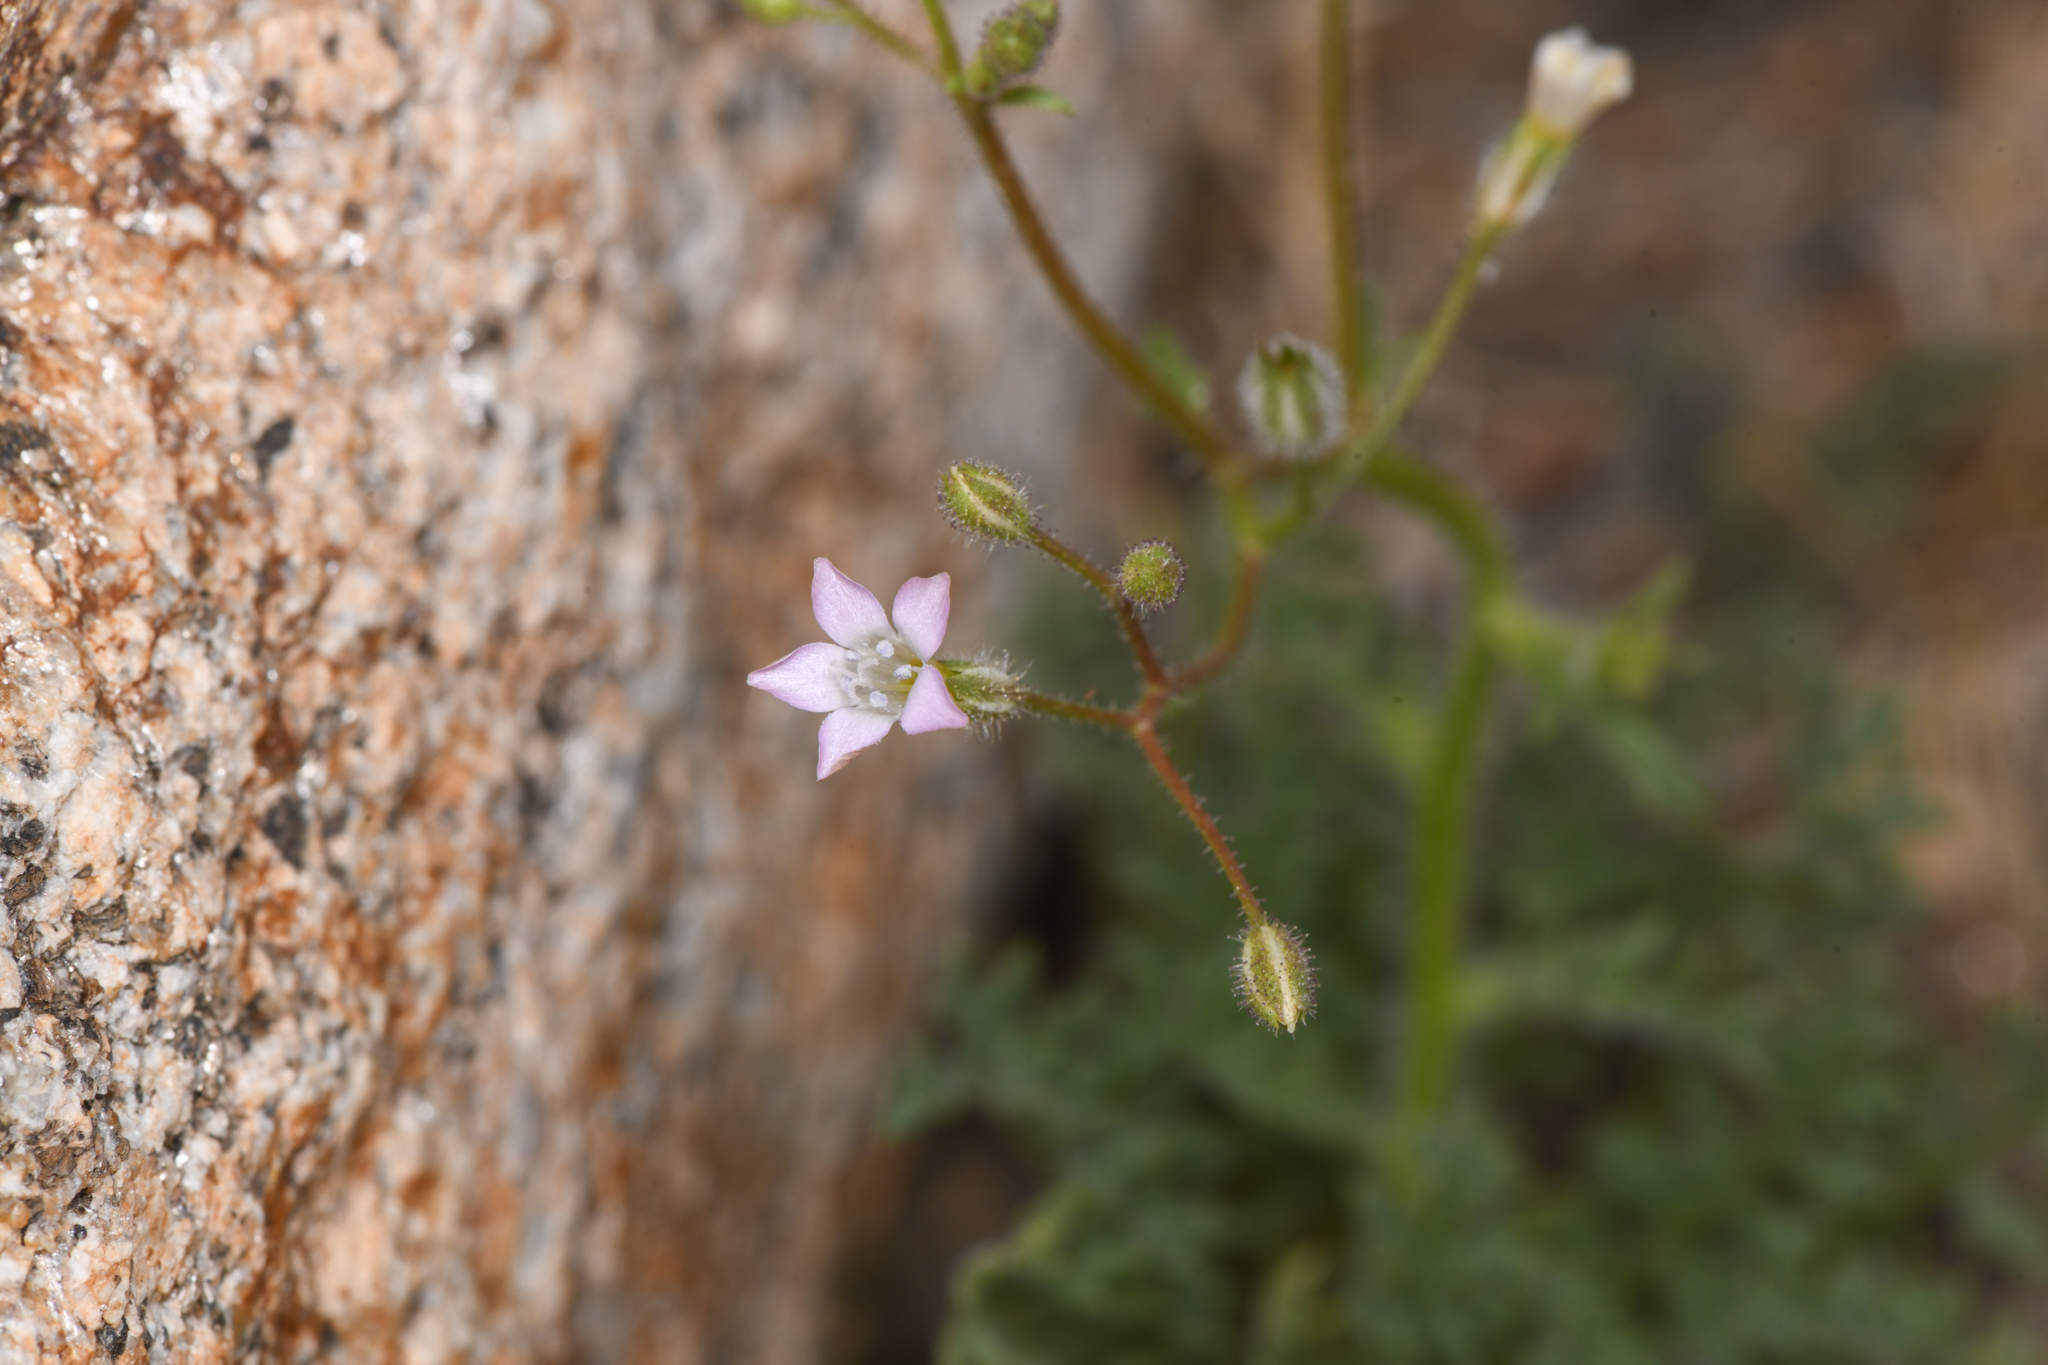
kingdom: Plantae
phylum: Tracheophyta
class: Magnoliopsida
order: Ericales
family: Polemoniaceae
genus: Gilia
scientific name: Gilia stellata
